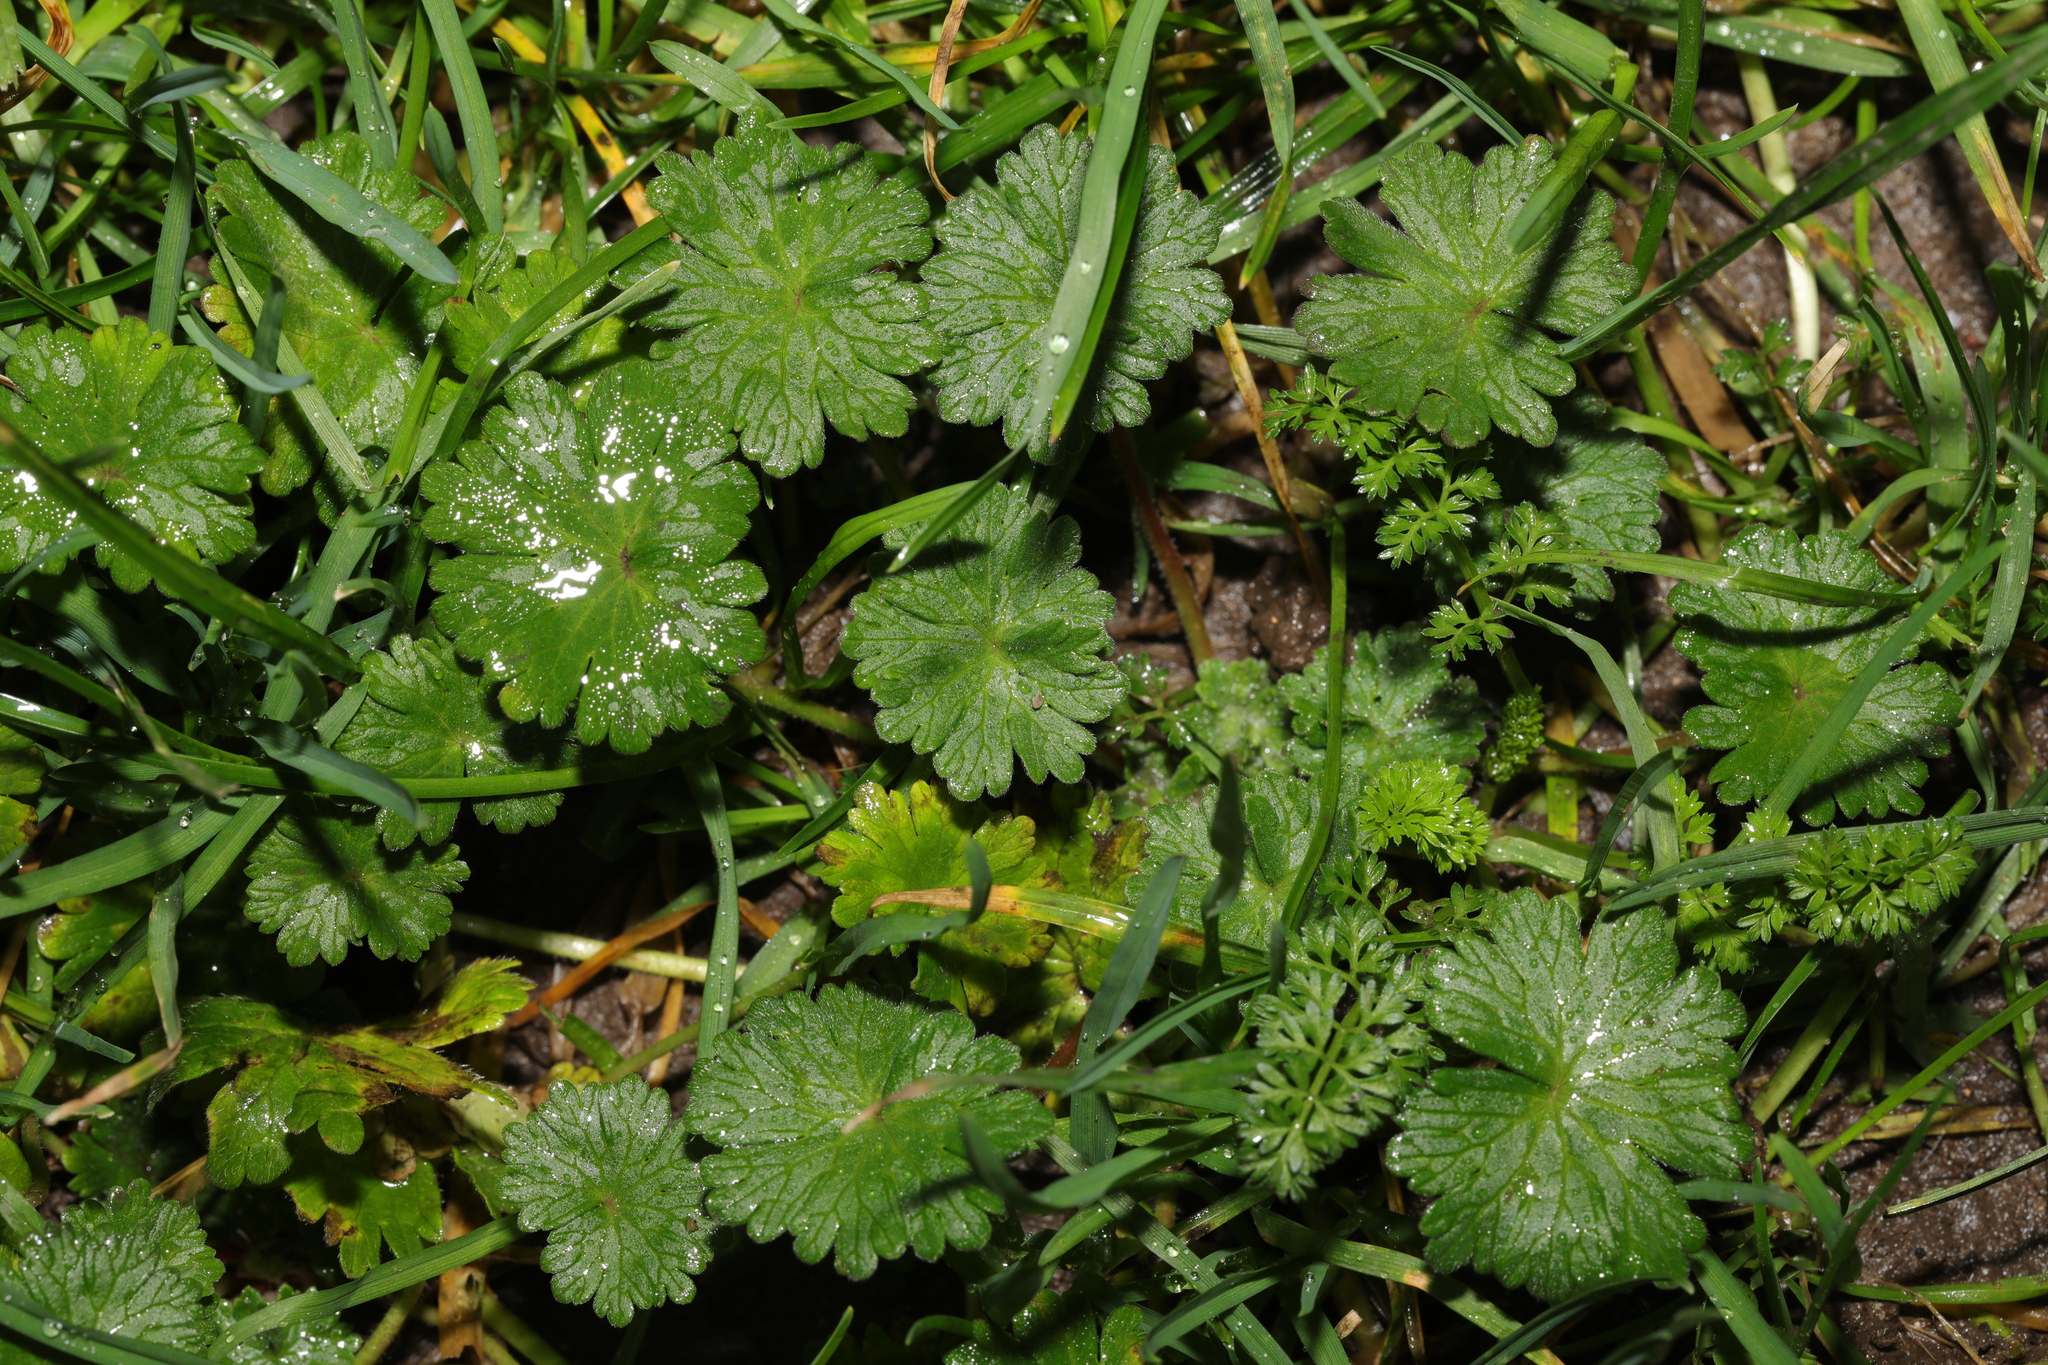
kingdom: Plantae
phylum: Tracheophyta
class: Magnoliopsida
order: Geraniales
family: Geraniaceae
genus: Geranium
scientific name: Geranium molle
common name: Dove's-foot crane's-bill
